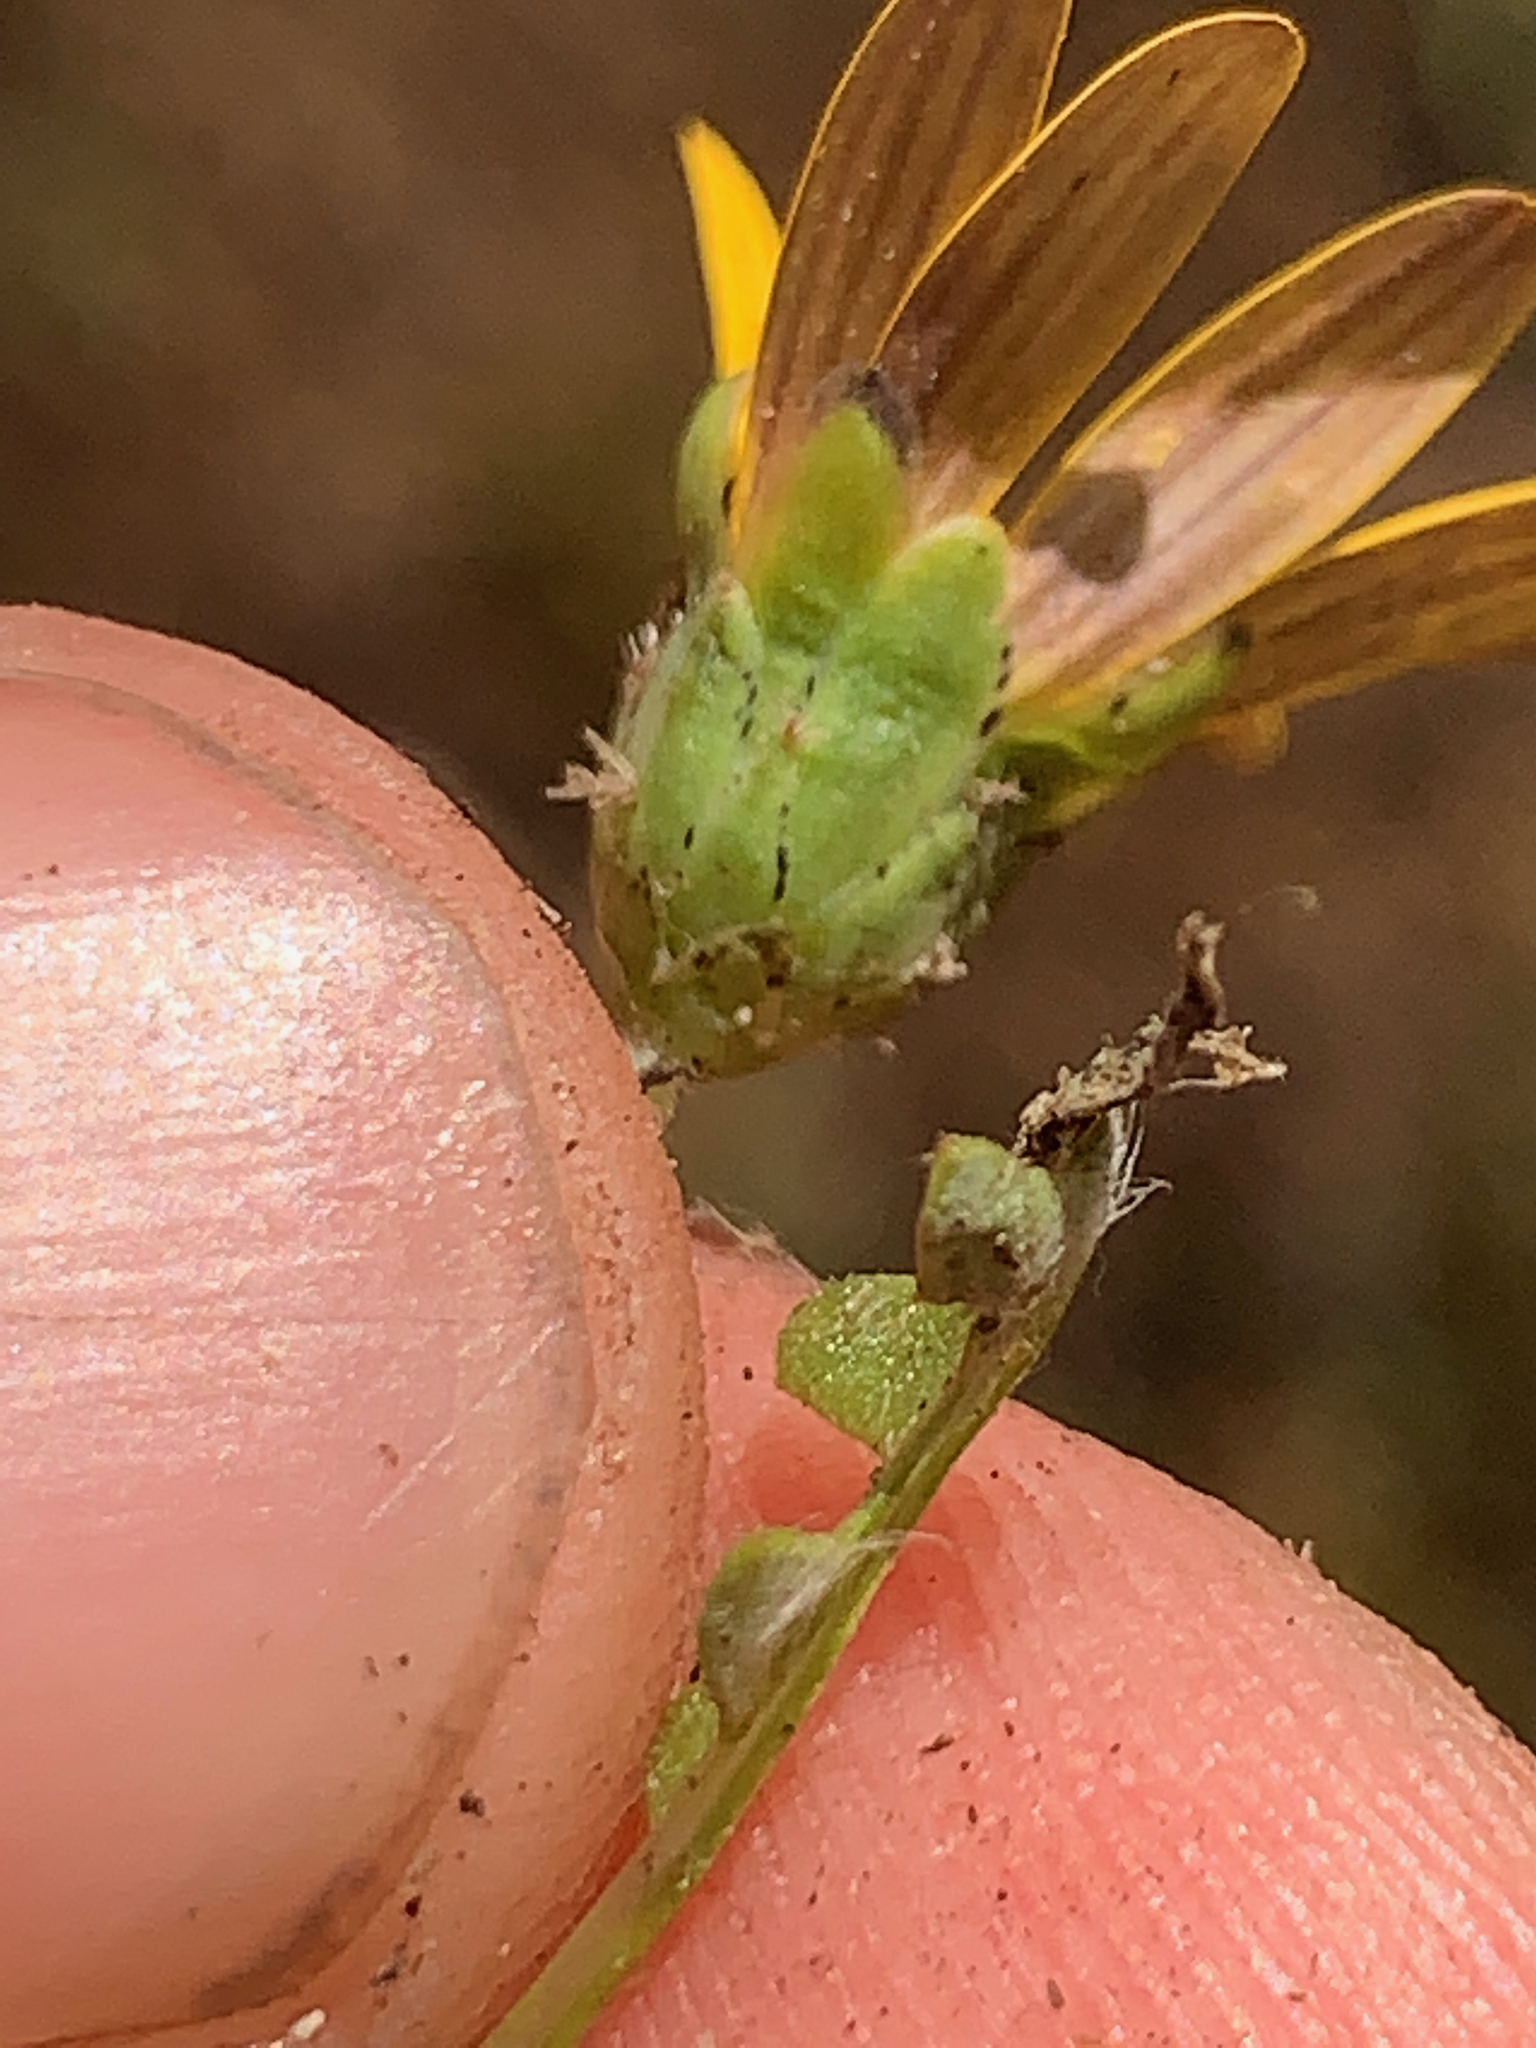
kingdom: Plantae
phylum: Tracheophyta
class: Magnoliopsida
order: Asterales
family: Asteraceae
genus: Arctotheca
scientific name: Arctotheca calendula
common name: Capeweed
